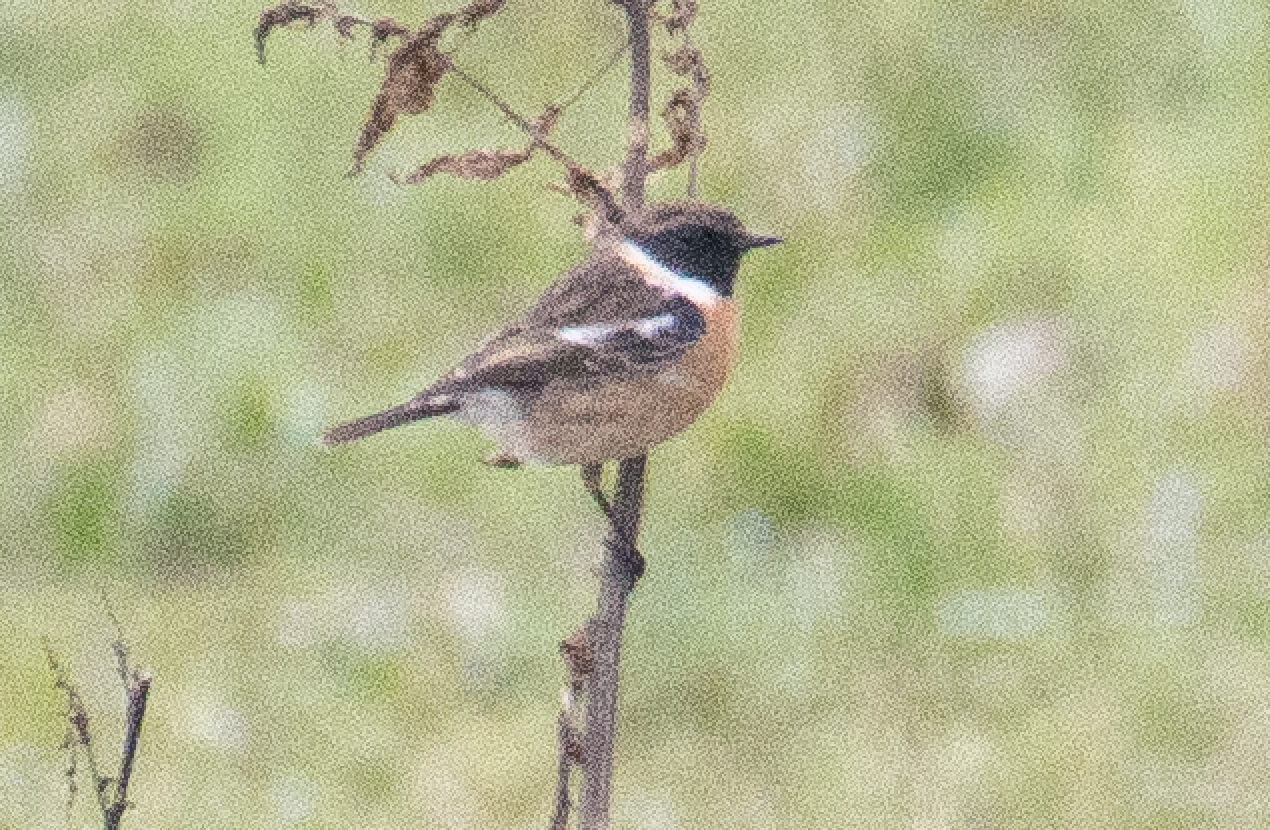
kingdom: Animalia
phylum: Chordata
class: Aves
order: Passeriformes
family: Muscicapidae
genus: Saxicola
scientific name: Saxicola rubicola
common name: European stonechat
